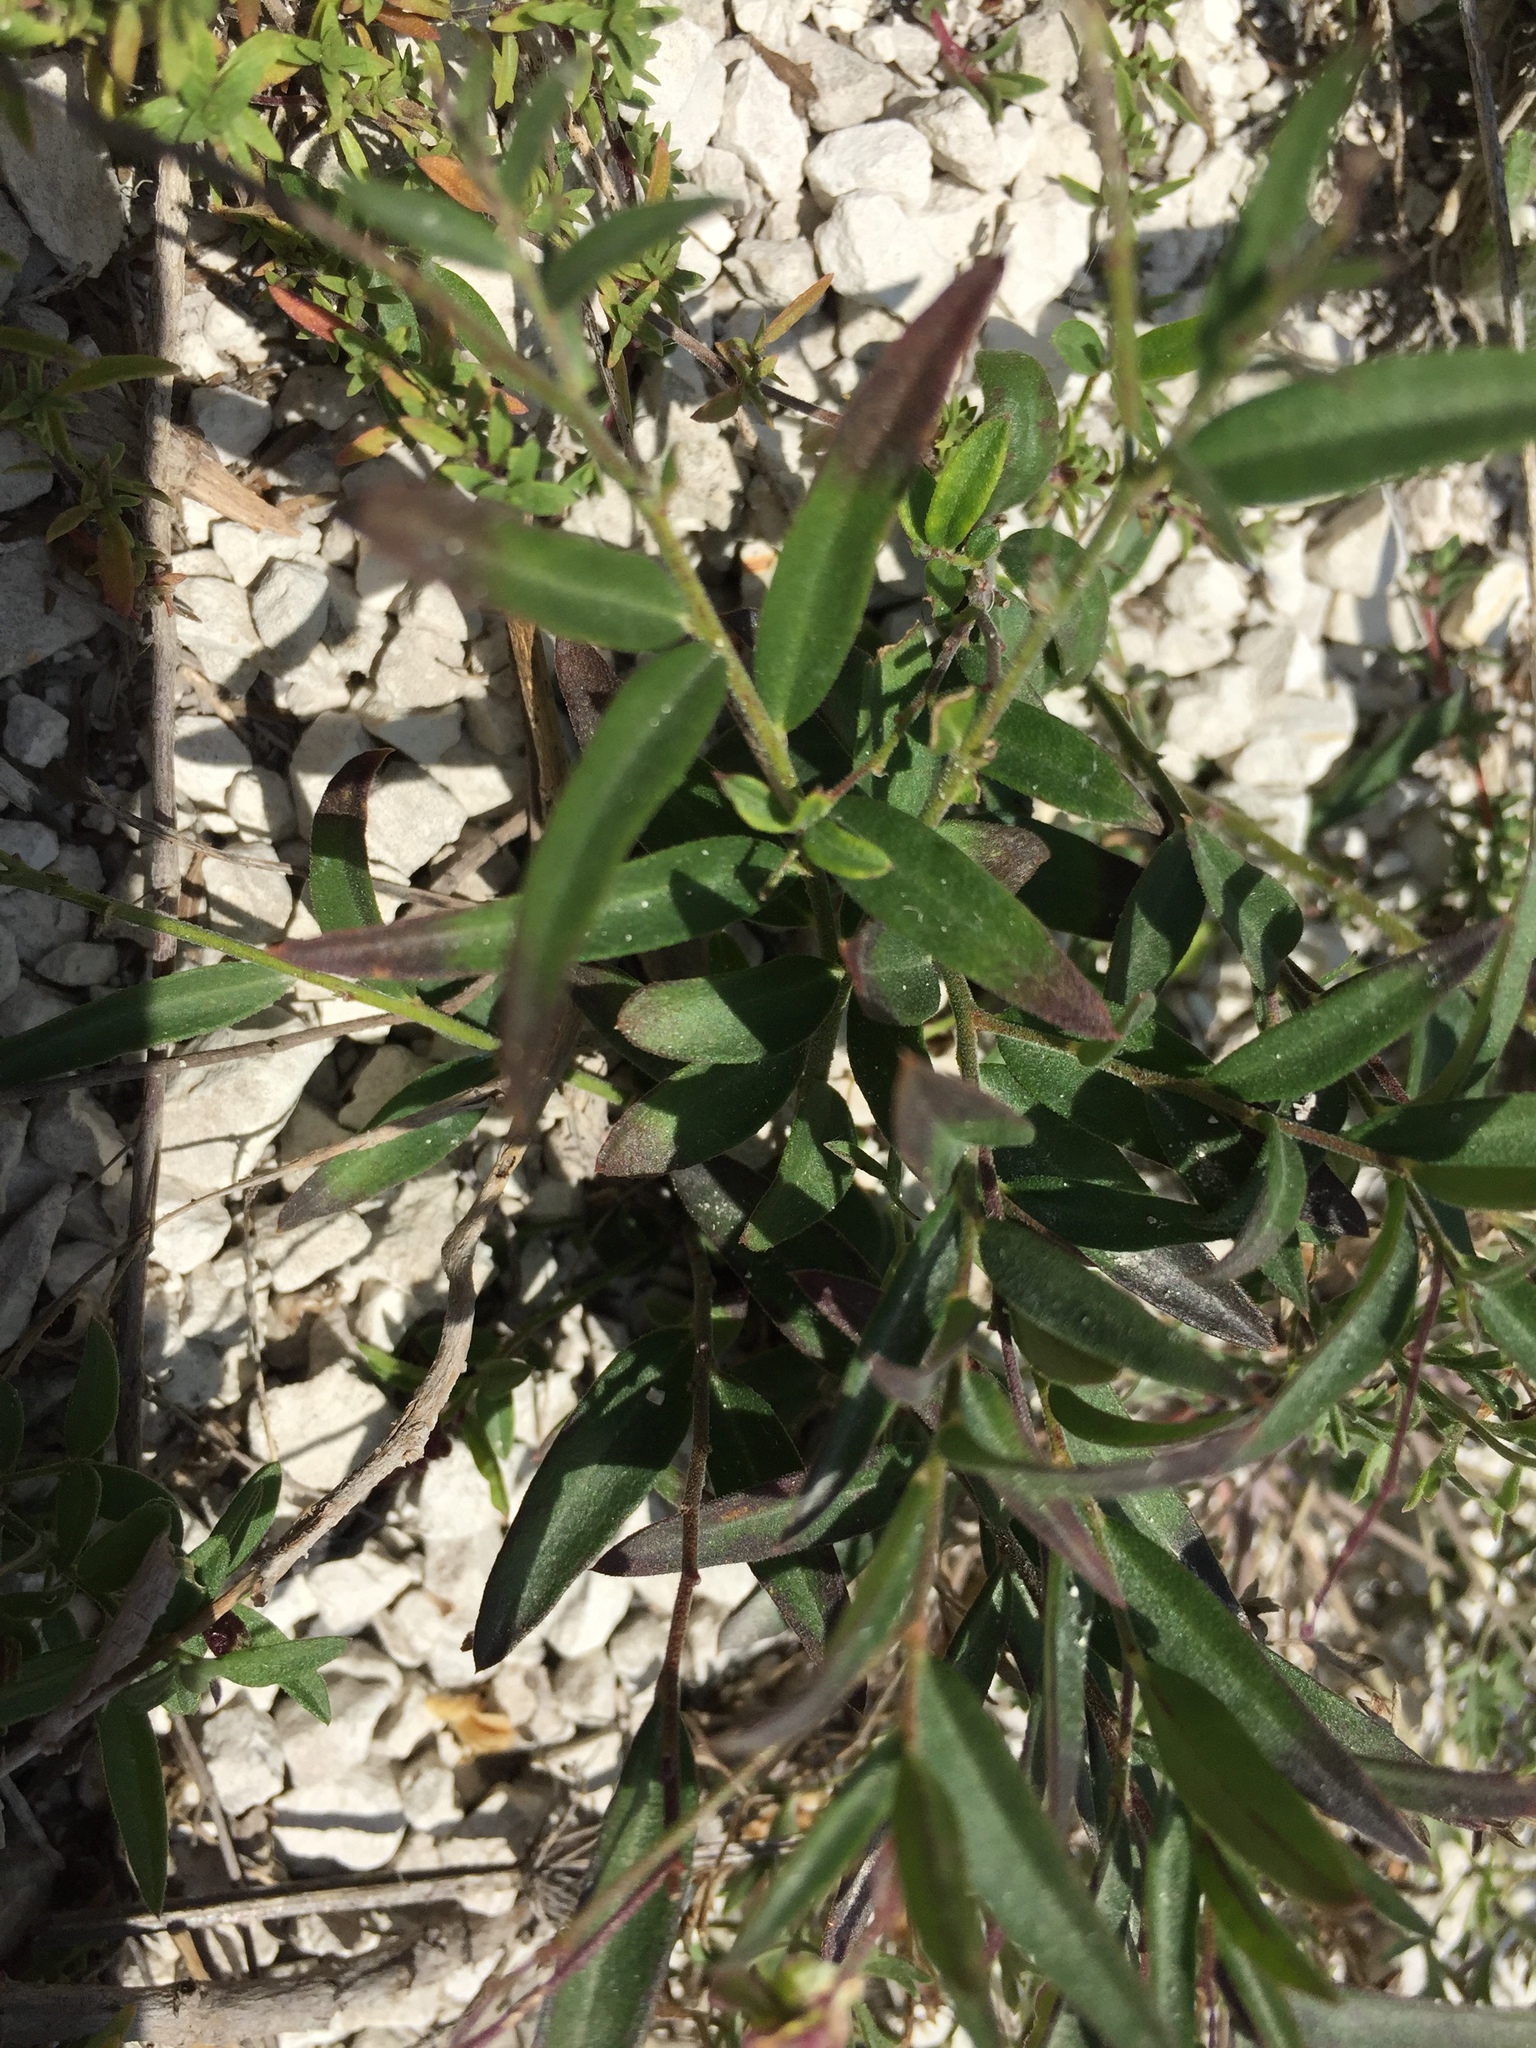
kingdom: Plantae
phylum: Tracheophyta
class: Magnoliopsida
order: Fabales
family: Polygalaceae
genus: Polygala
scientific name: Polygala sibirica
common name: Siberian polygala
